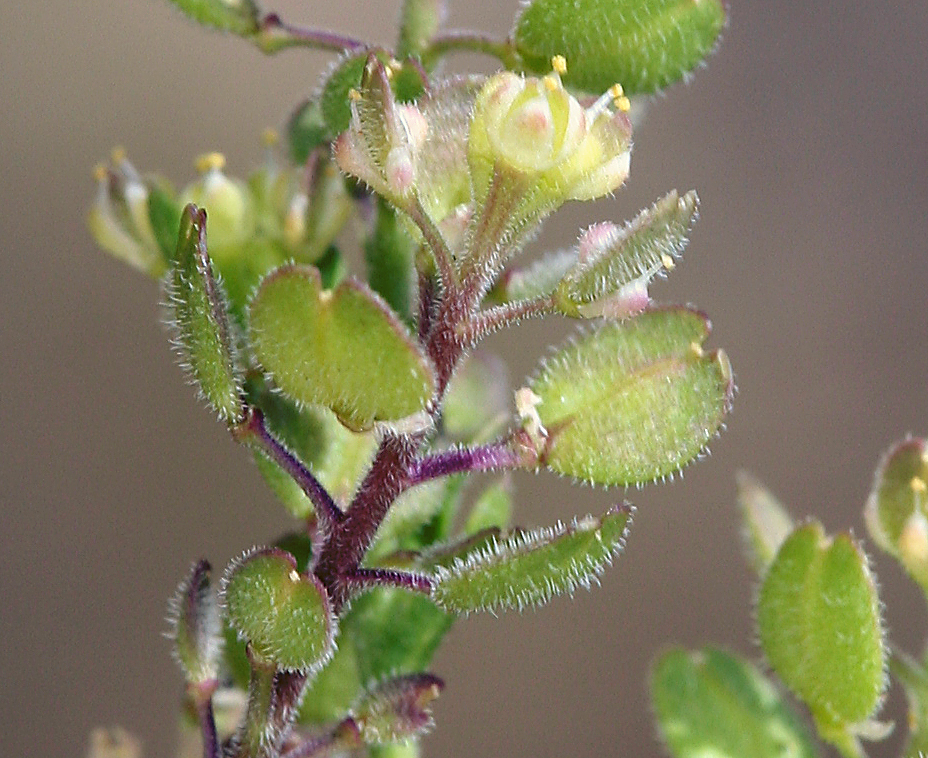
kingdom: Plantae
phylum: Tracheophyta
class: Magnoliopsida
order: Brassicales
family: Brassicaceae
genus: Lepidium
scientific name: Lepidium lasiocarpum
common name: Hairy-pod pepperwort
